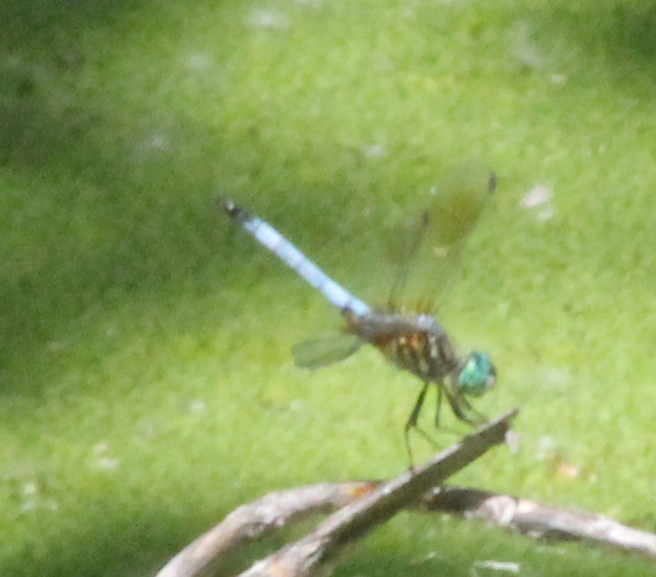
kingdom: Animalia
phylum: Arthropoda
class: Insecta
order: Odonata
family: Libellulidae
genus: Pachydiplax
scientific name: Pachydiplax longipennis
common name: Blue dasher
